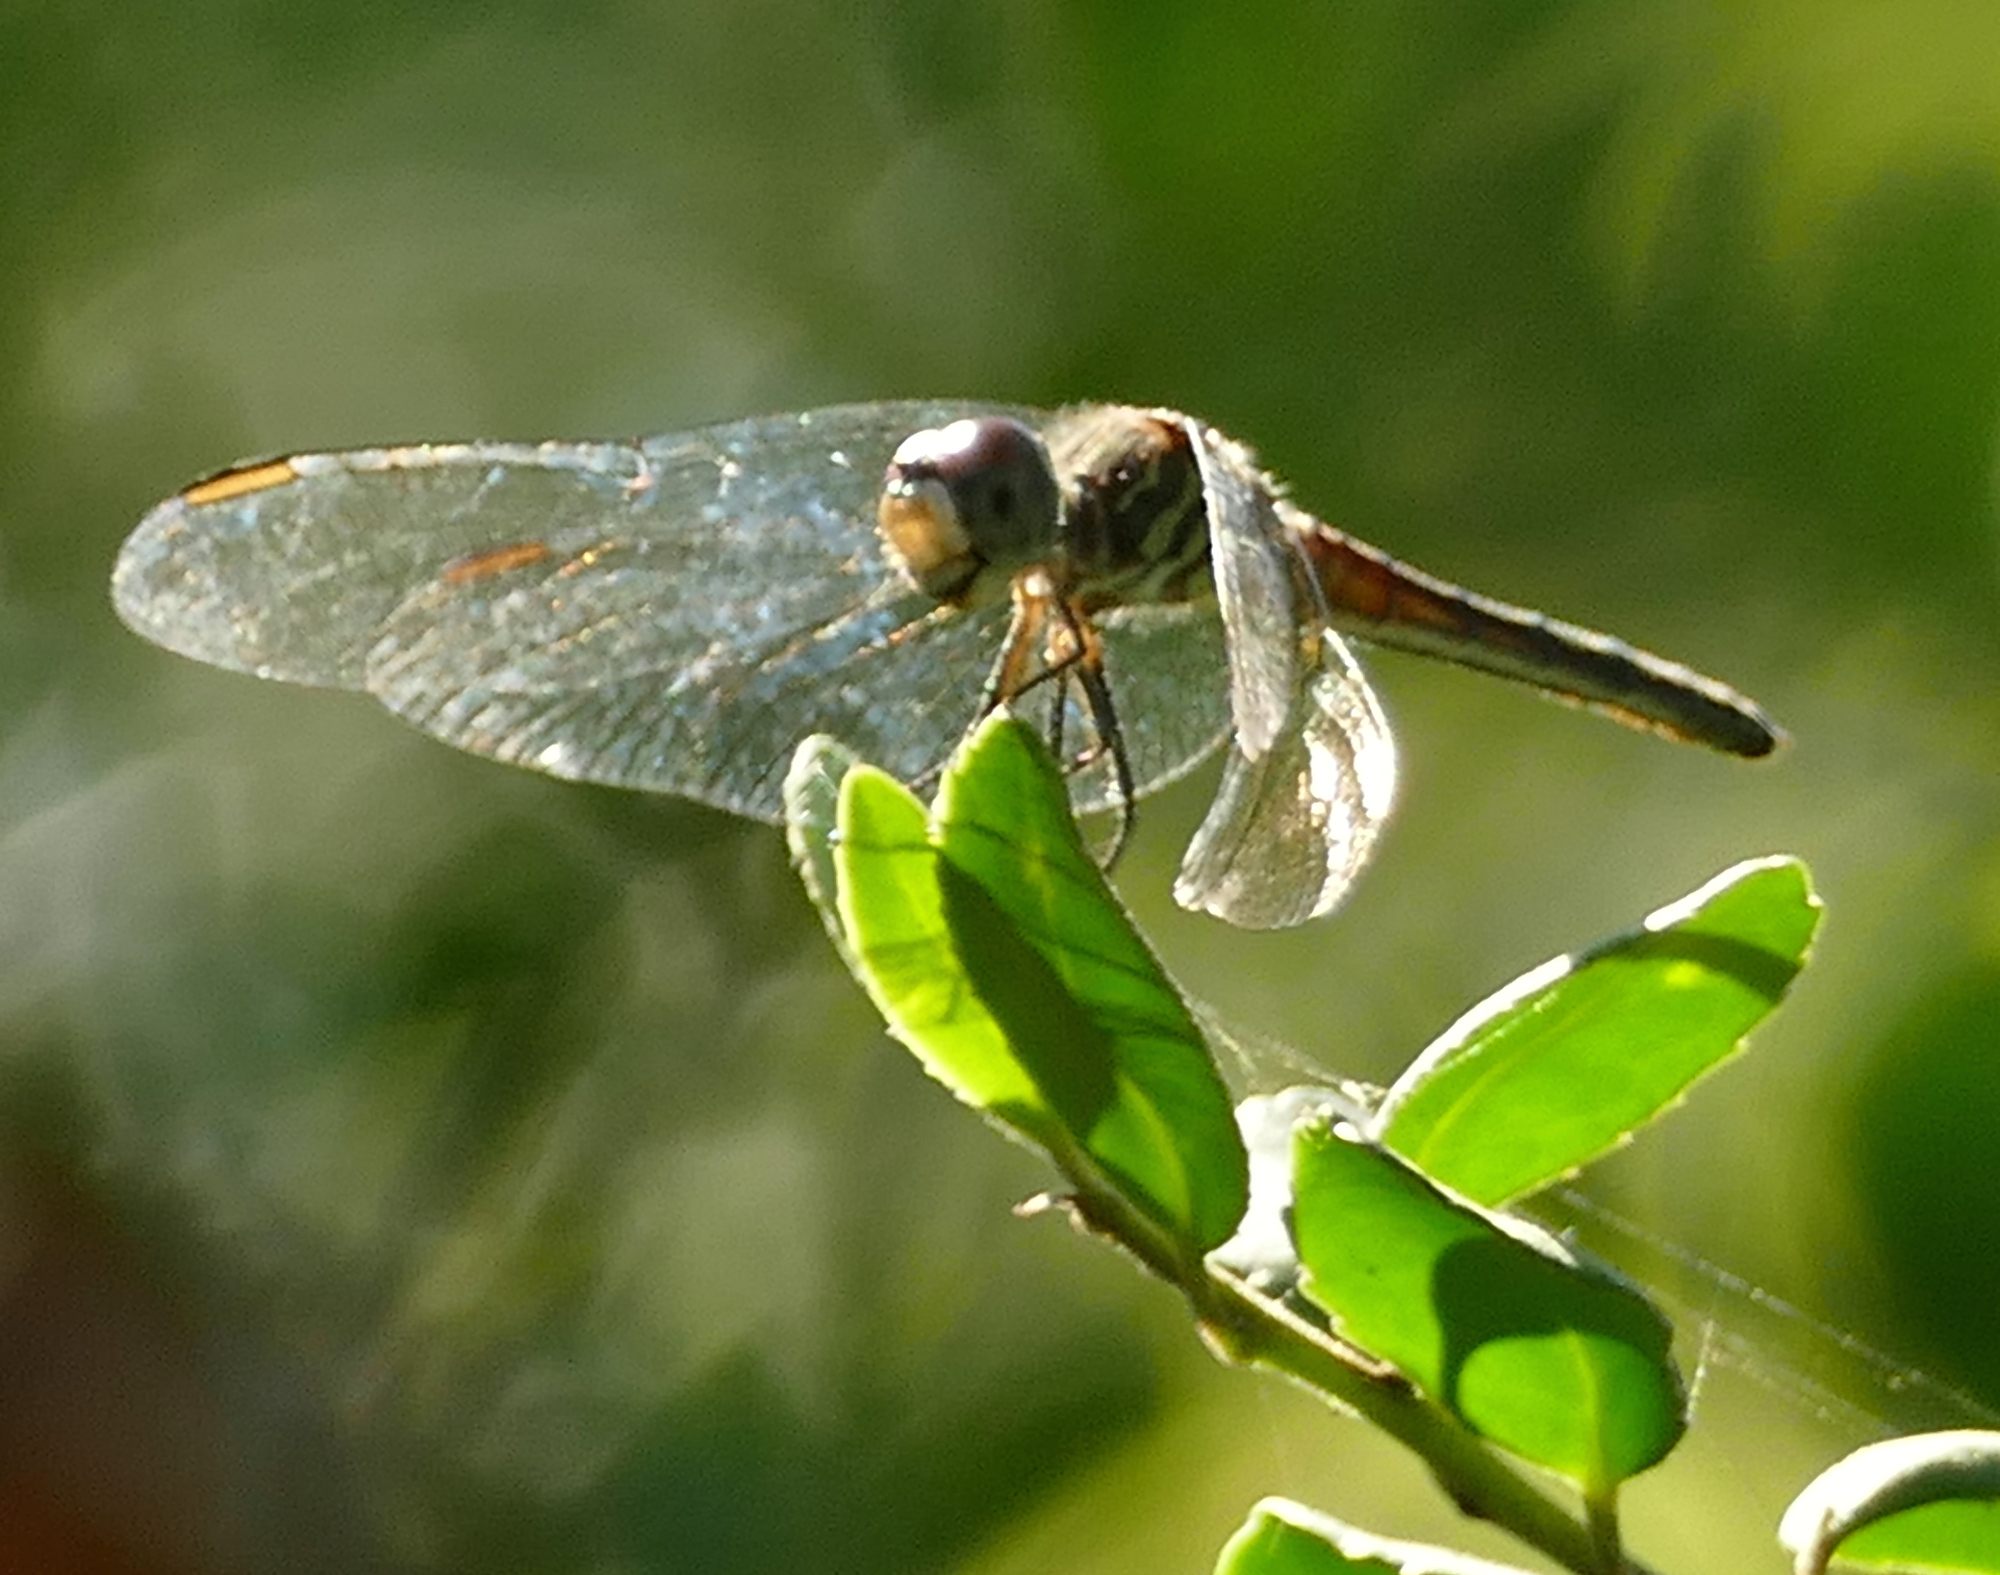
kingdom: Animalia
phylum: Arthropoda
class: Insecta
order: Odonata
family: Libellulidae
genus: Pachydiplax
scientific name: Pachydiplax longipennis
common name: Blue dasher
